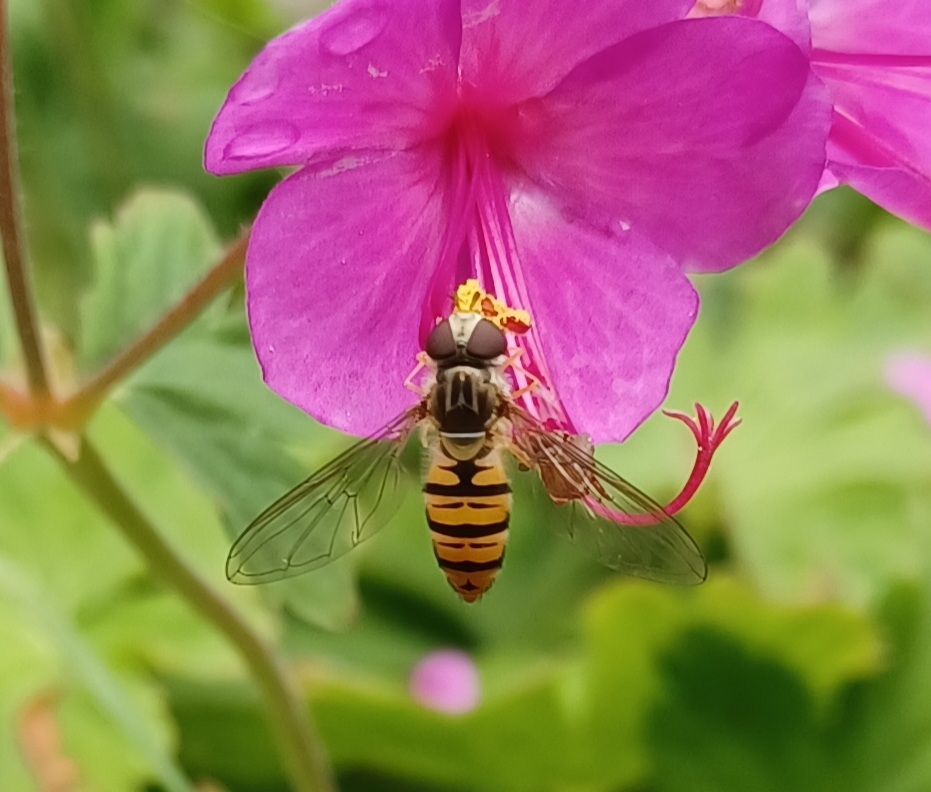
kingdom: Animalia
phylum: Arthropoda
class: Insecta
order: Diptera
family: Syrphidae
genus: Episyrphus
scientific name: Episyrphus balteatus
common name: Marmalade hoverfly
